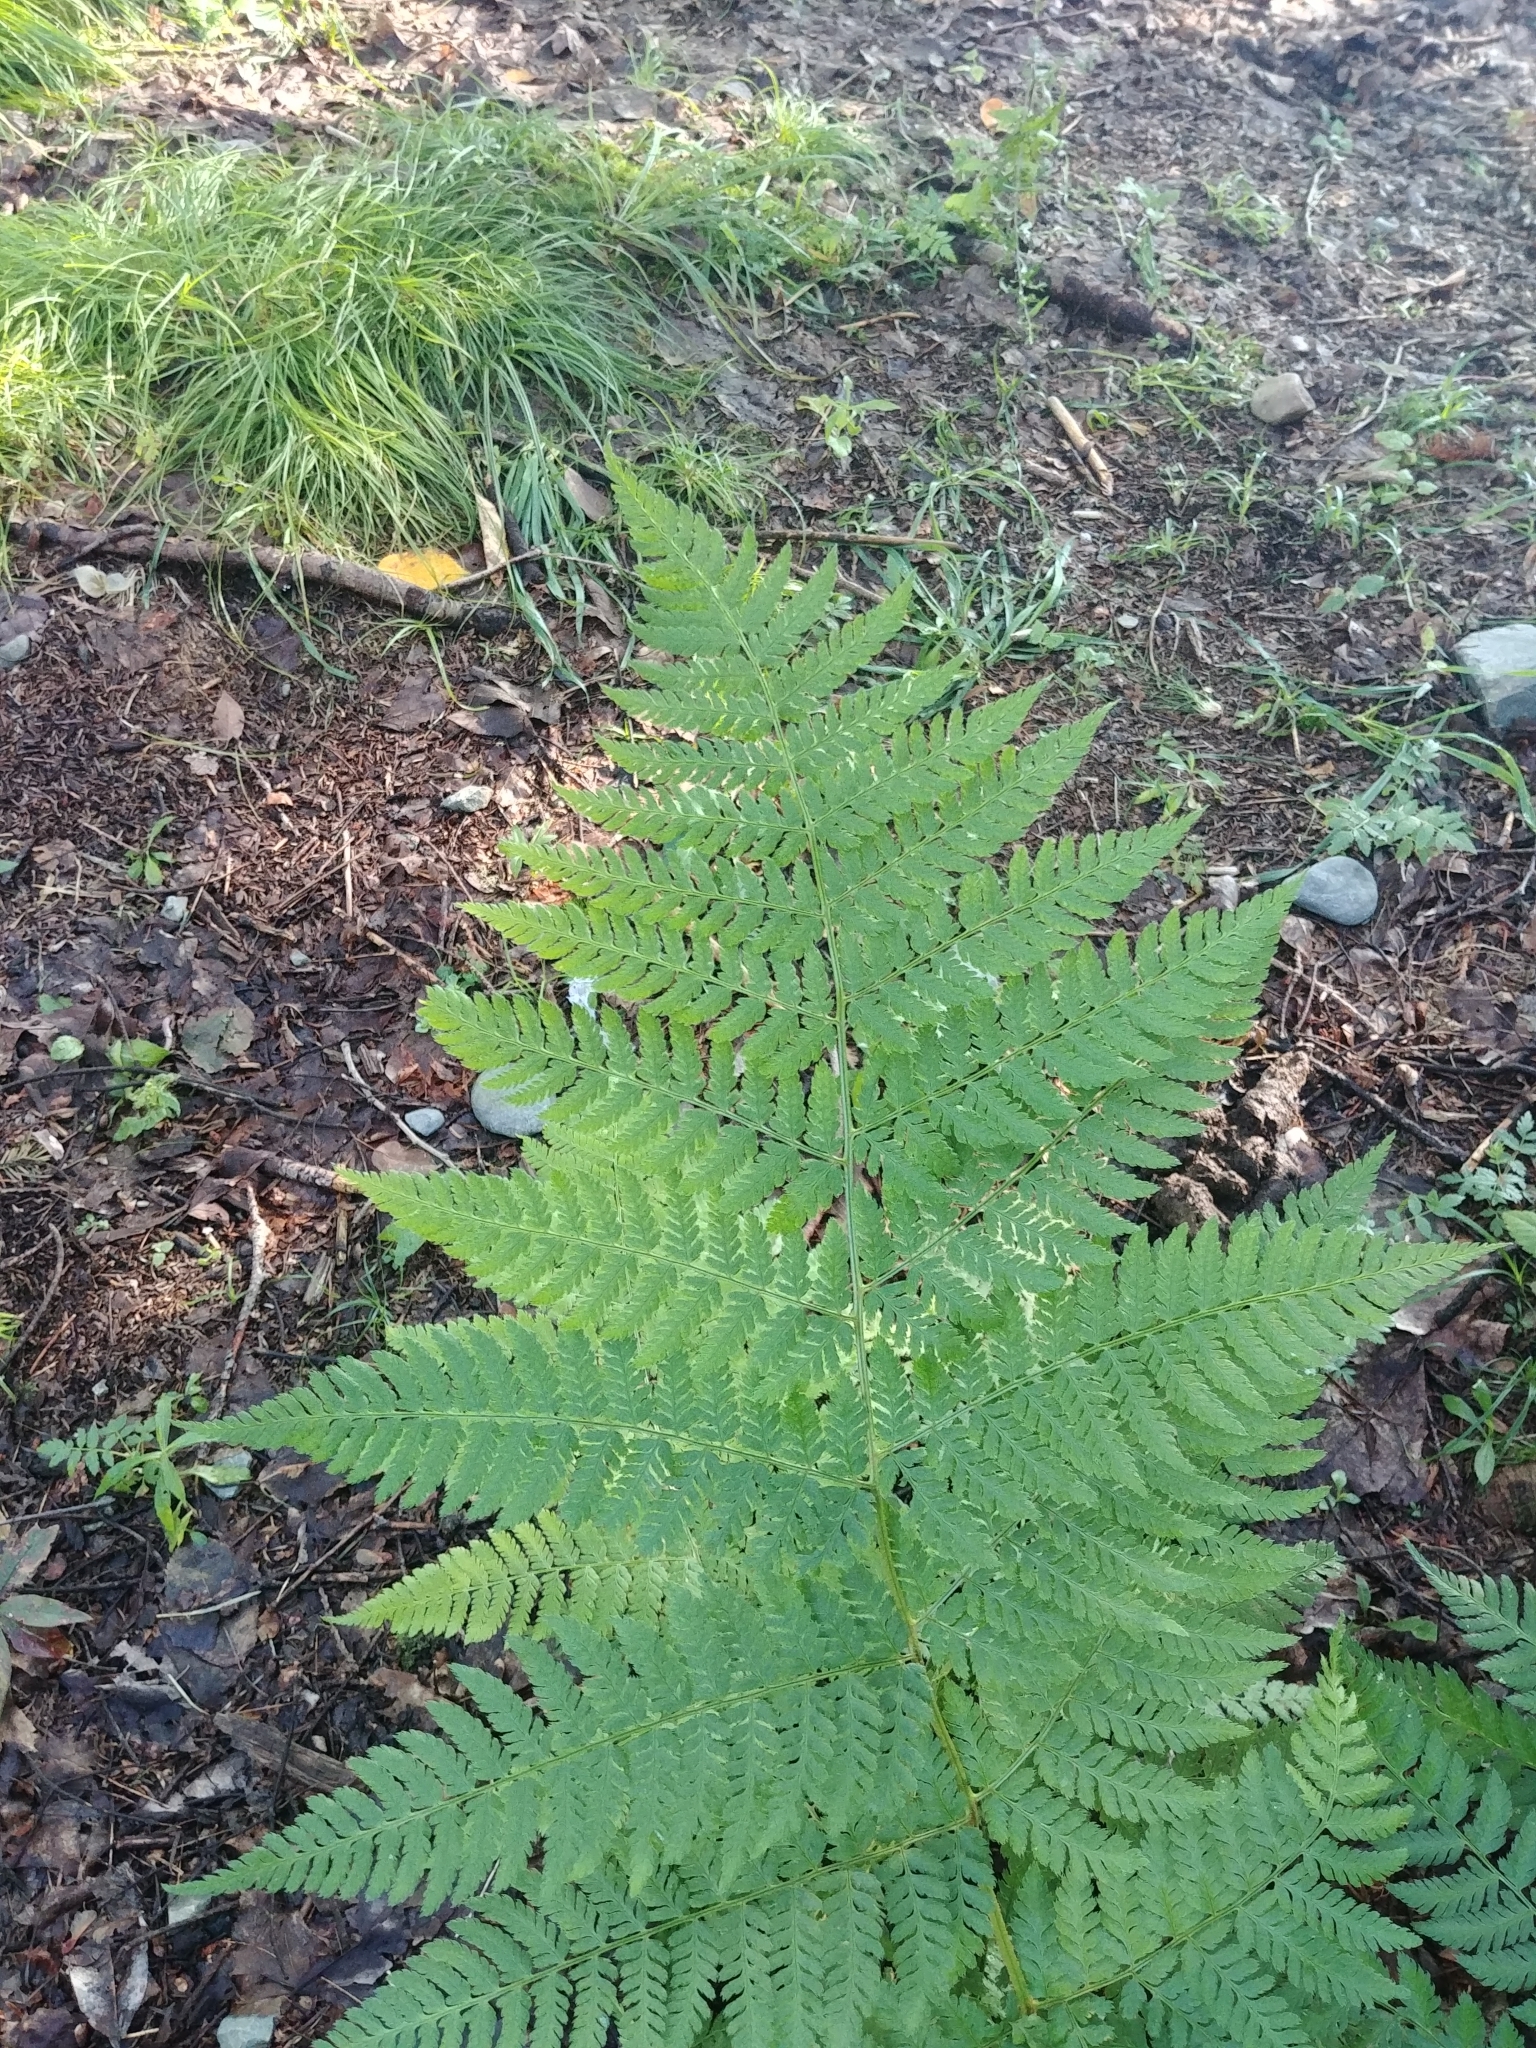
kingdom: Plantae
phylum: Tracheophyta
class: Polypodiopsida
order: Polypodiales
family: Dryopteridaceae
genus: Dryopteris
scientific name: Dryopteris campyloptera
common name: Mountain wood fern
